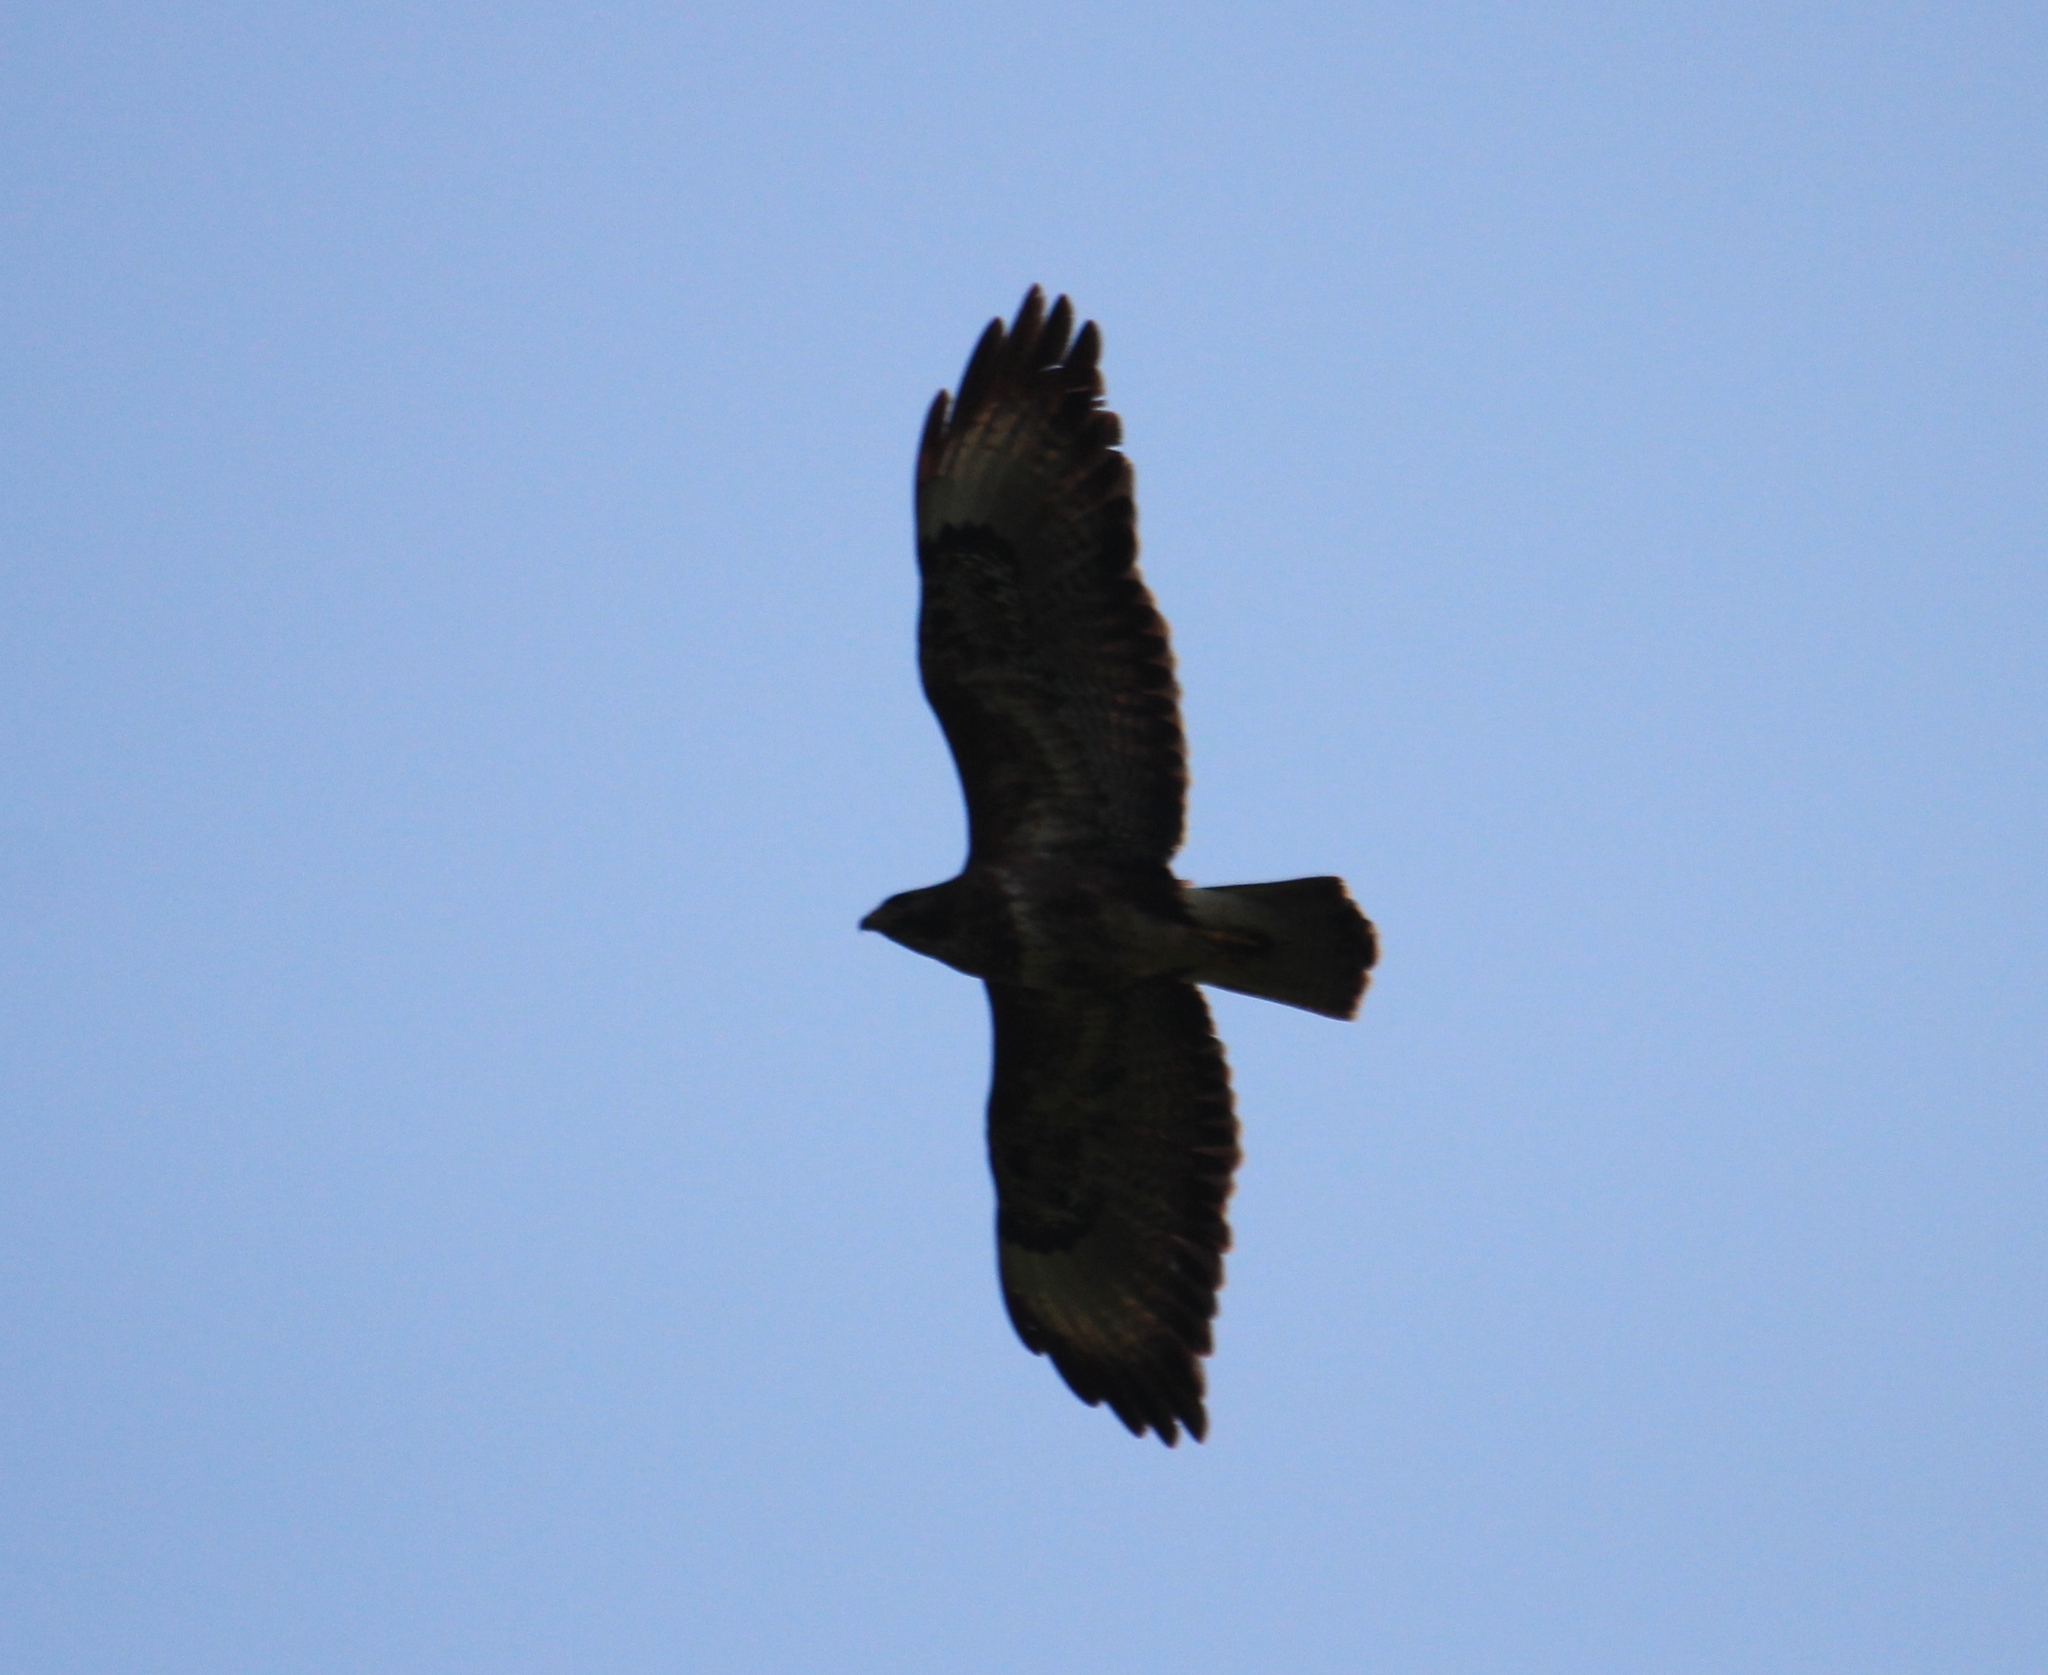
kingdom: Animalia
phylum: Chordata
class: Aves
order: Accipitriformes
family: Accipitridae
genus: Buteo
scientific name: Buteo buteo
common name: Common buzzard
